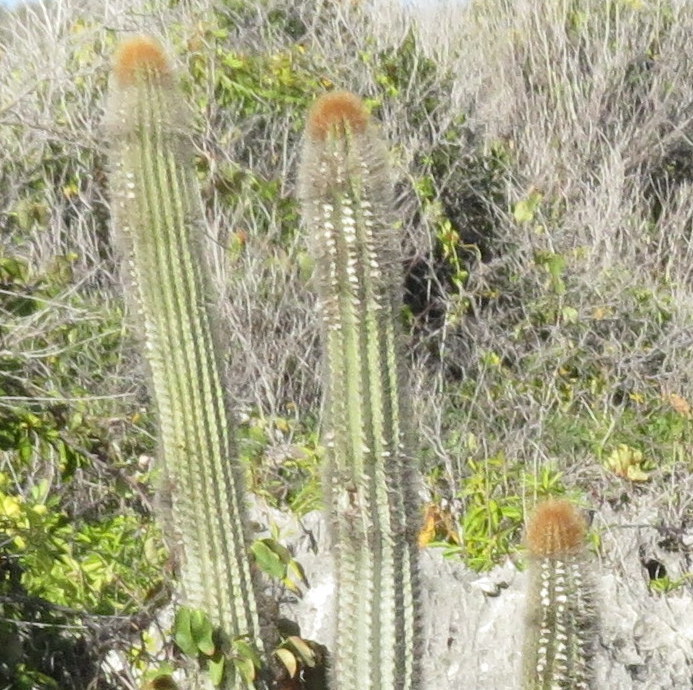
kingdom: Plantae
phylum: Tracheophyta
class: Magnoliopsida
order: Caryophyllales
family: Cactaceae
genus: Pilosocereus
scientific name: Pilosocereus jamaicensis
